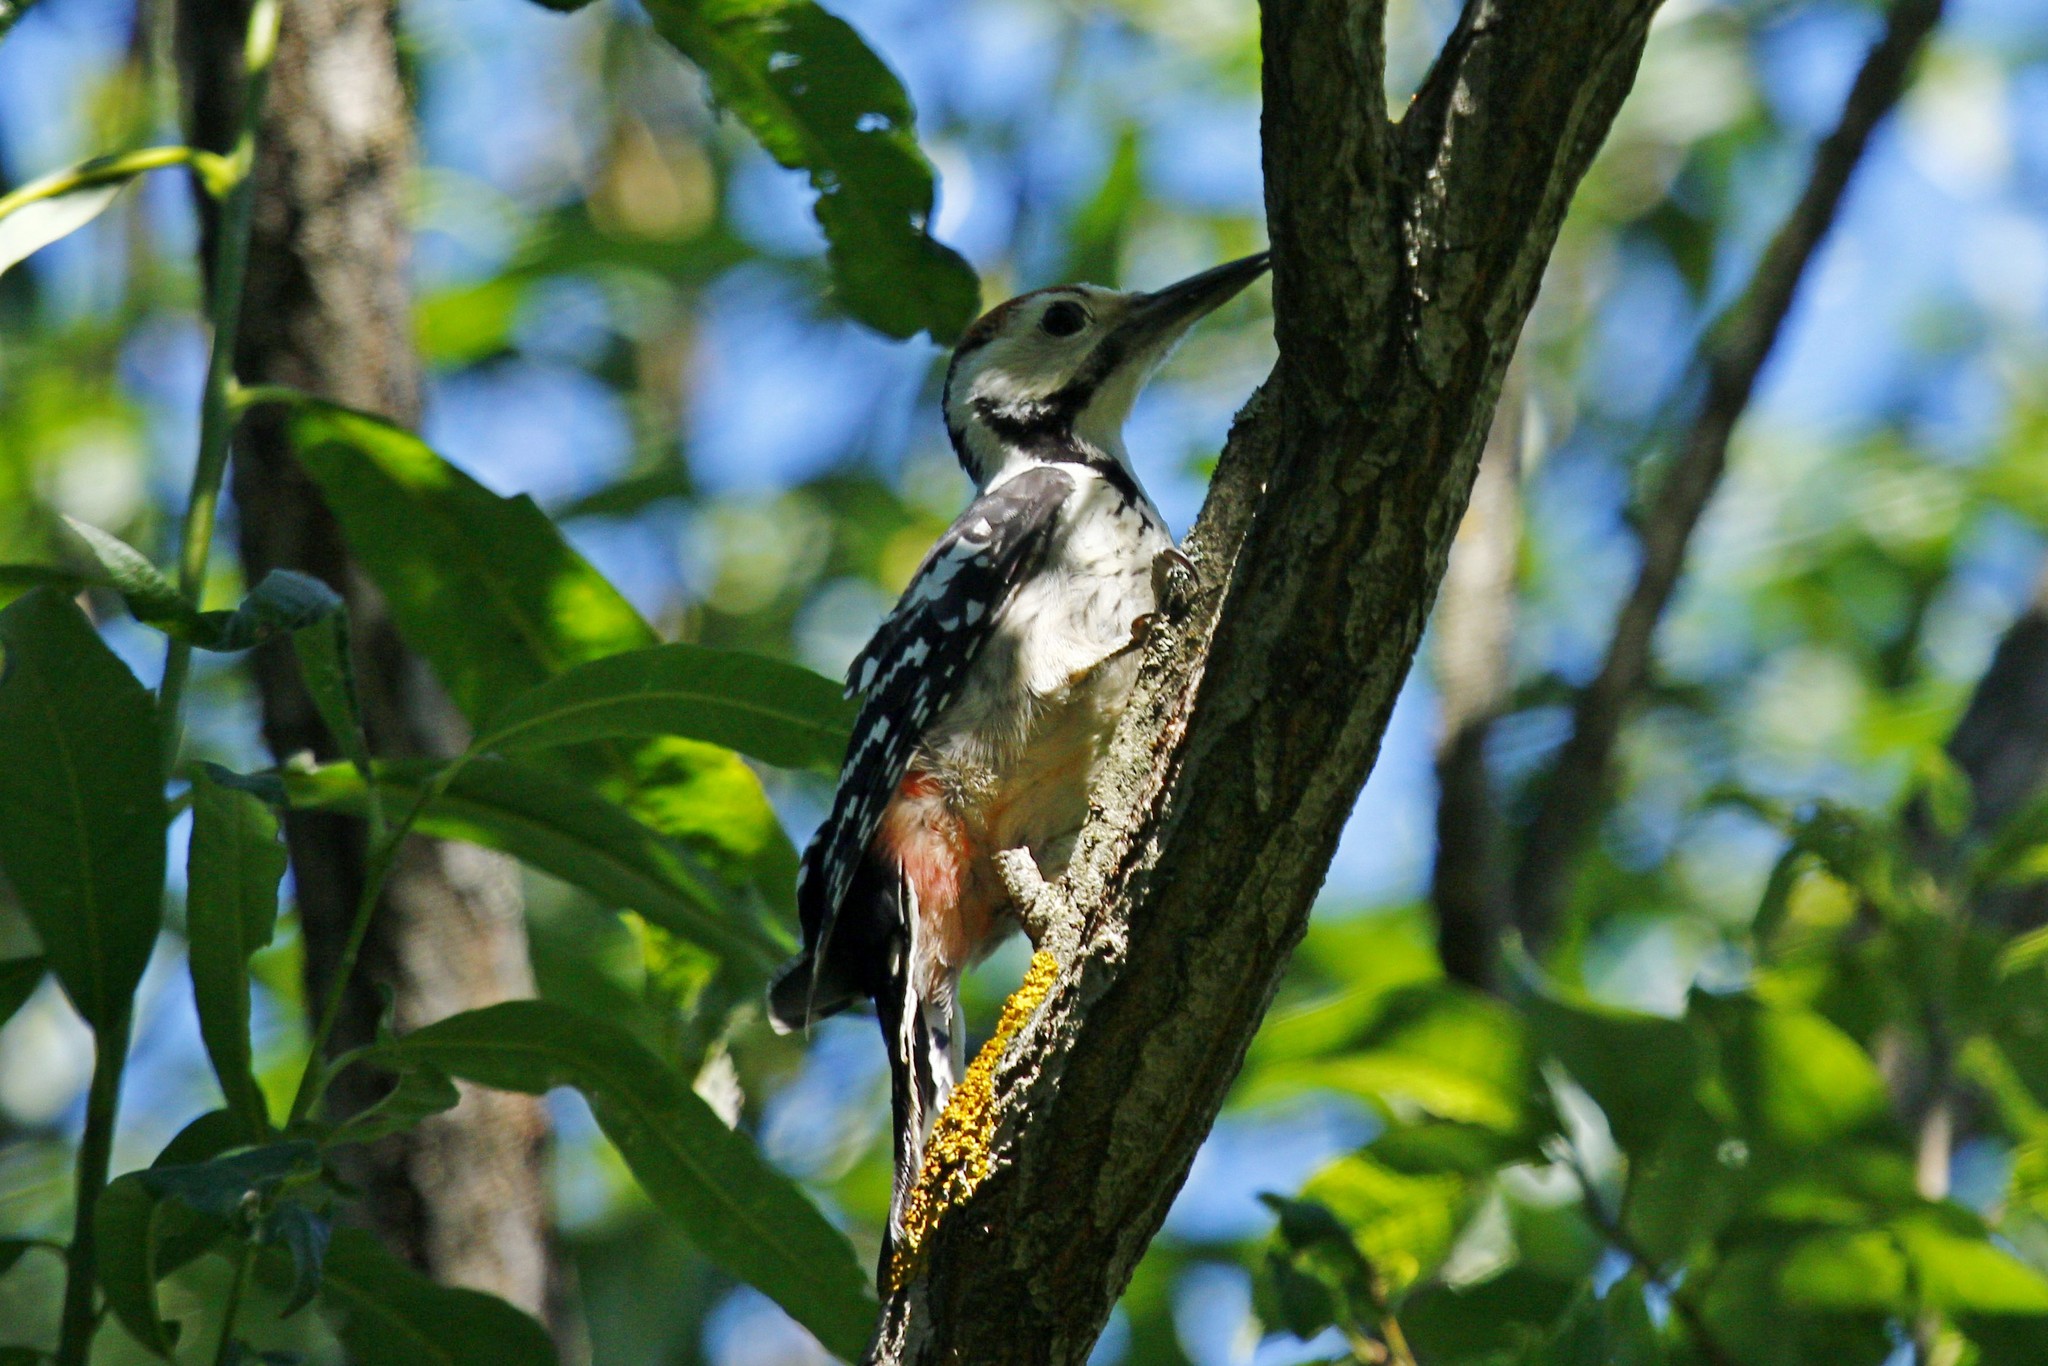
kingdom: Animalia
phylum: Chordata
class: Aves
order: Piciformes
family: Picidae
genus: Dendrocopos
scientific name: Dendrocopos leucotos
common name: White-backed woodpecker
